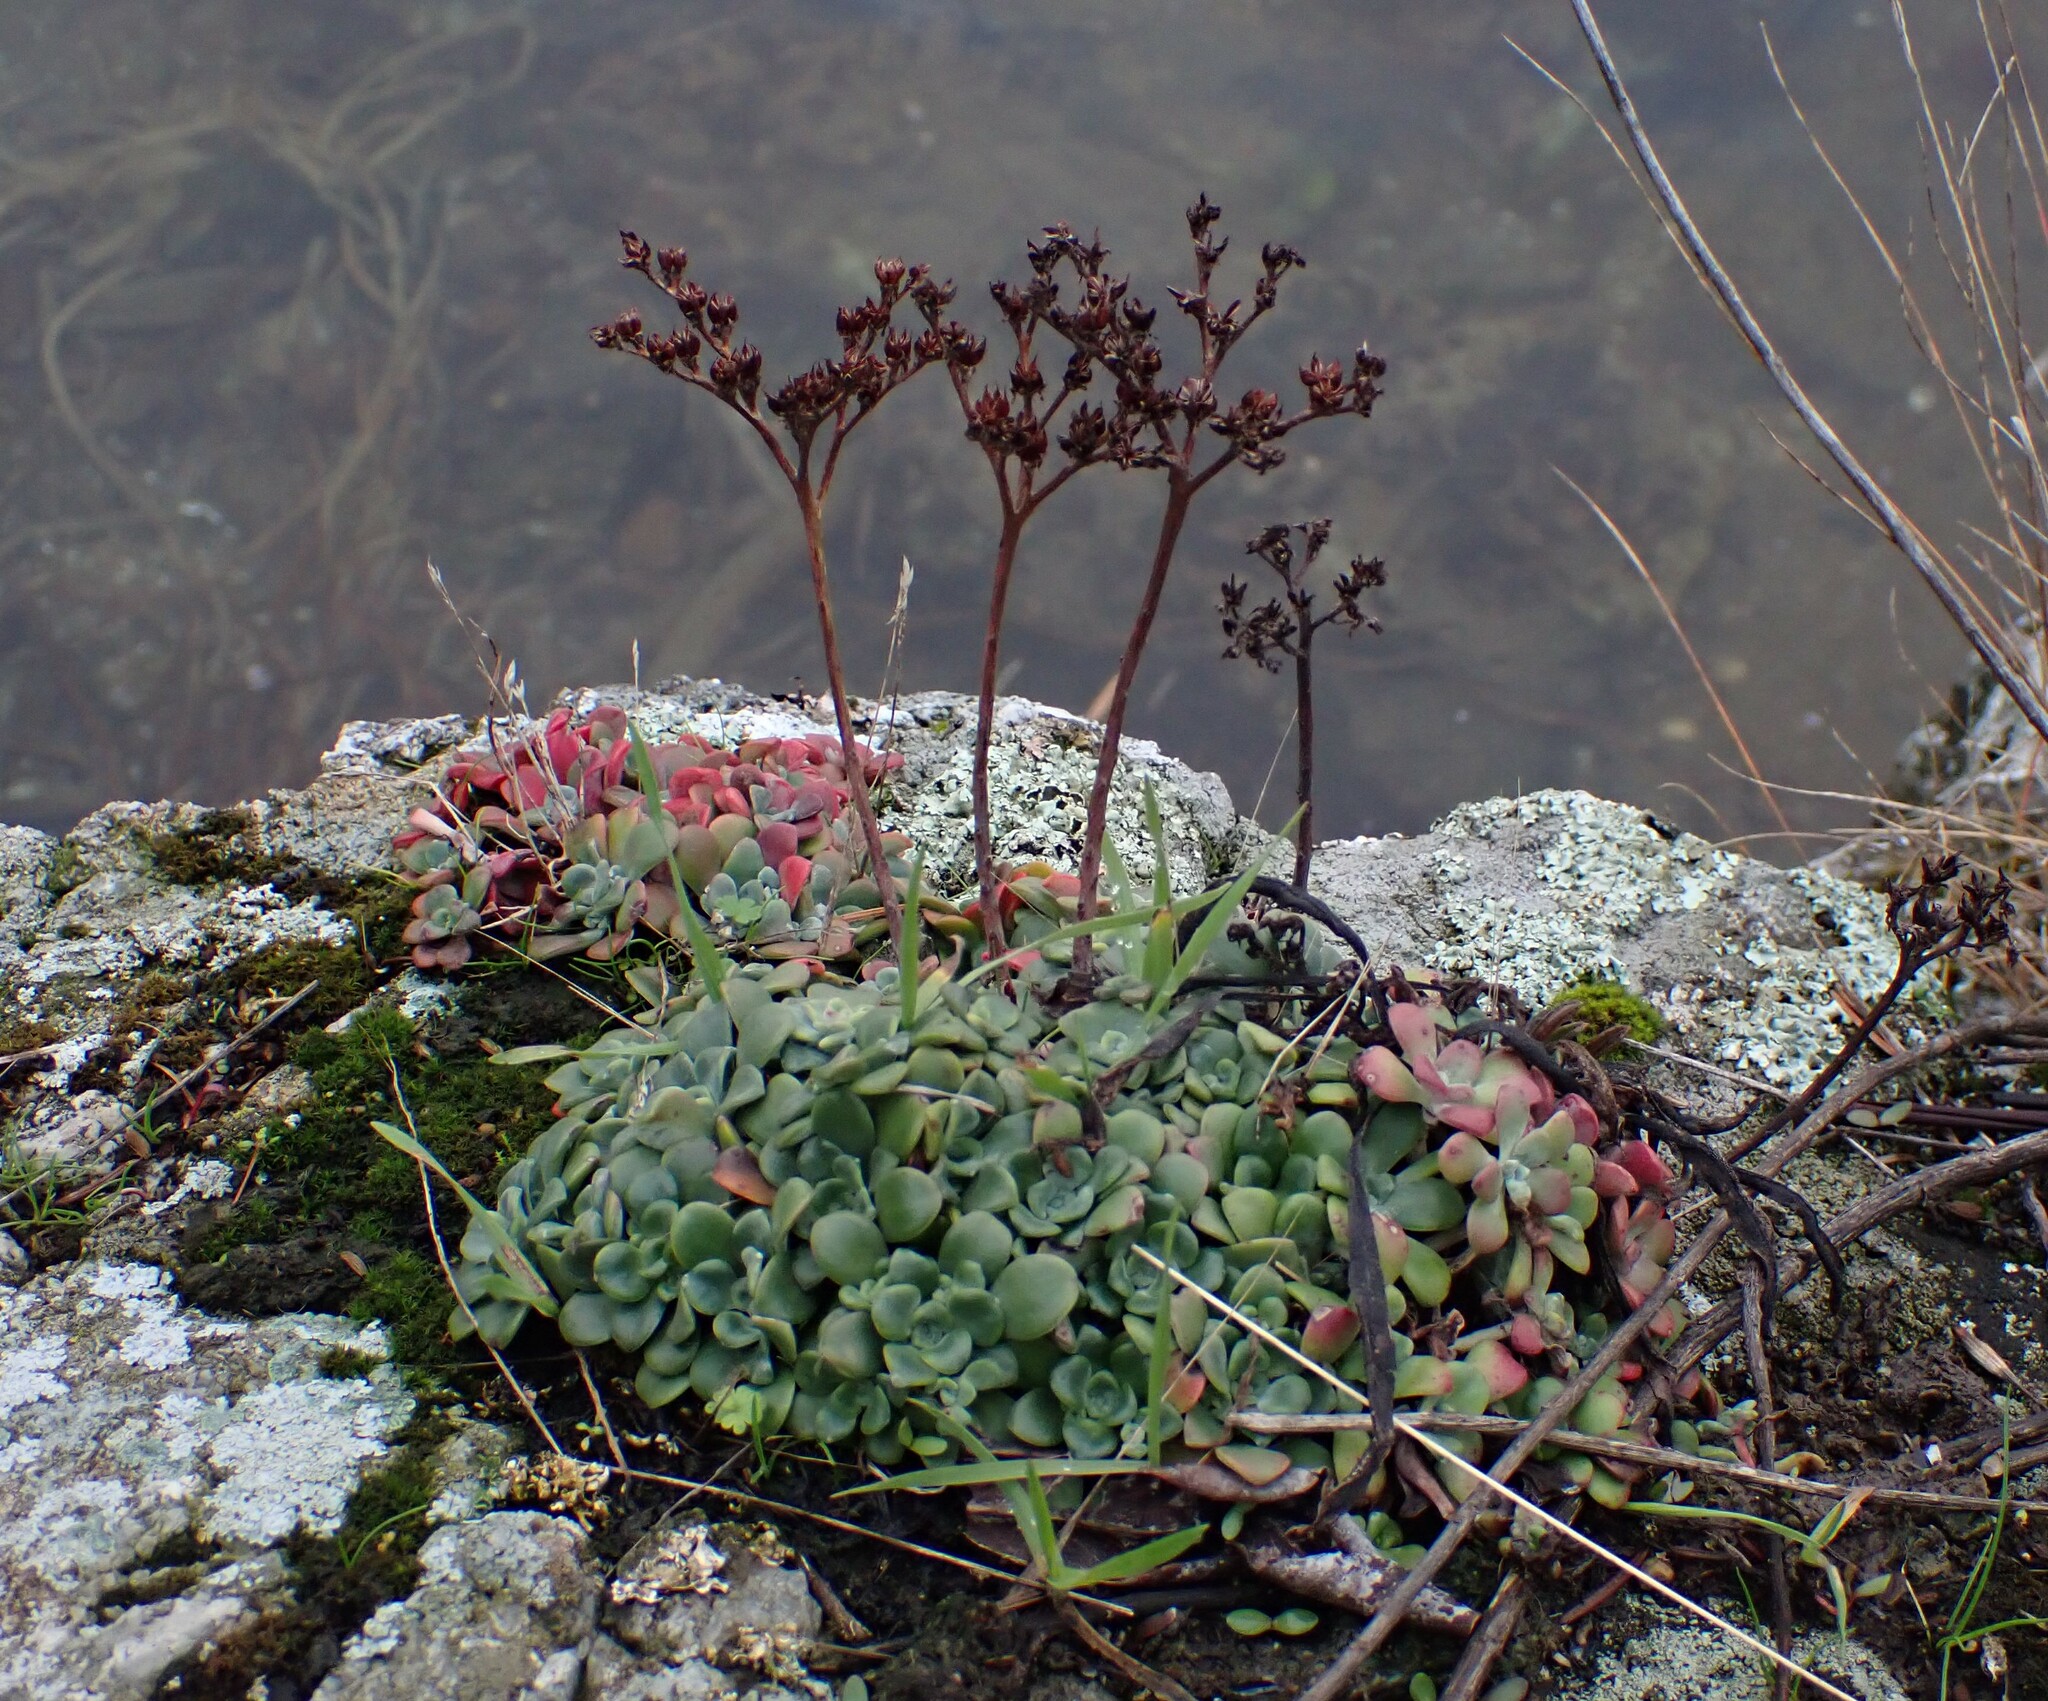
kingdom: Plantae
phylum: Tracheophyta
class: Magnoliopsida
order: Saxifragales
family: Crassulaceae
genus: Sedum
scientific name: Sedum spathulifolium
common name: Colorado stonecrop
